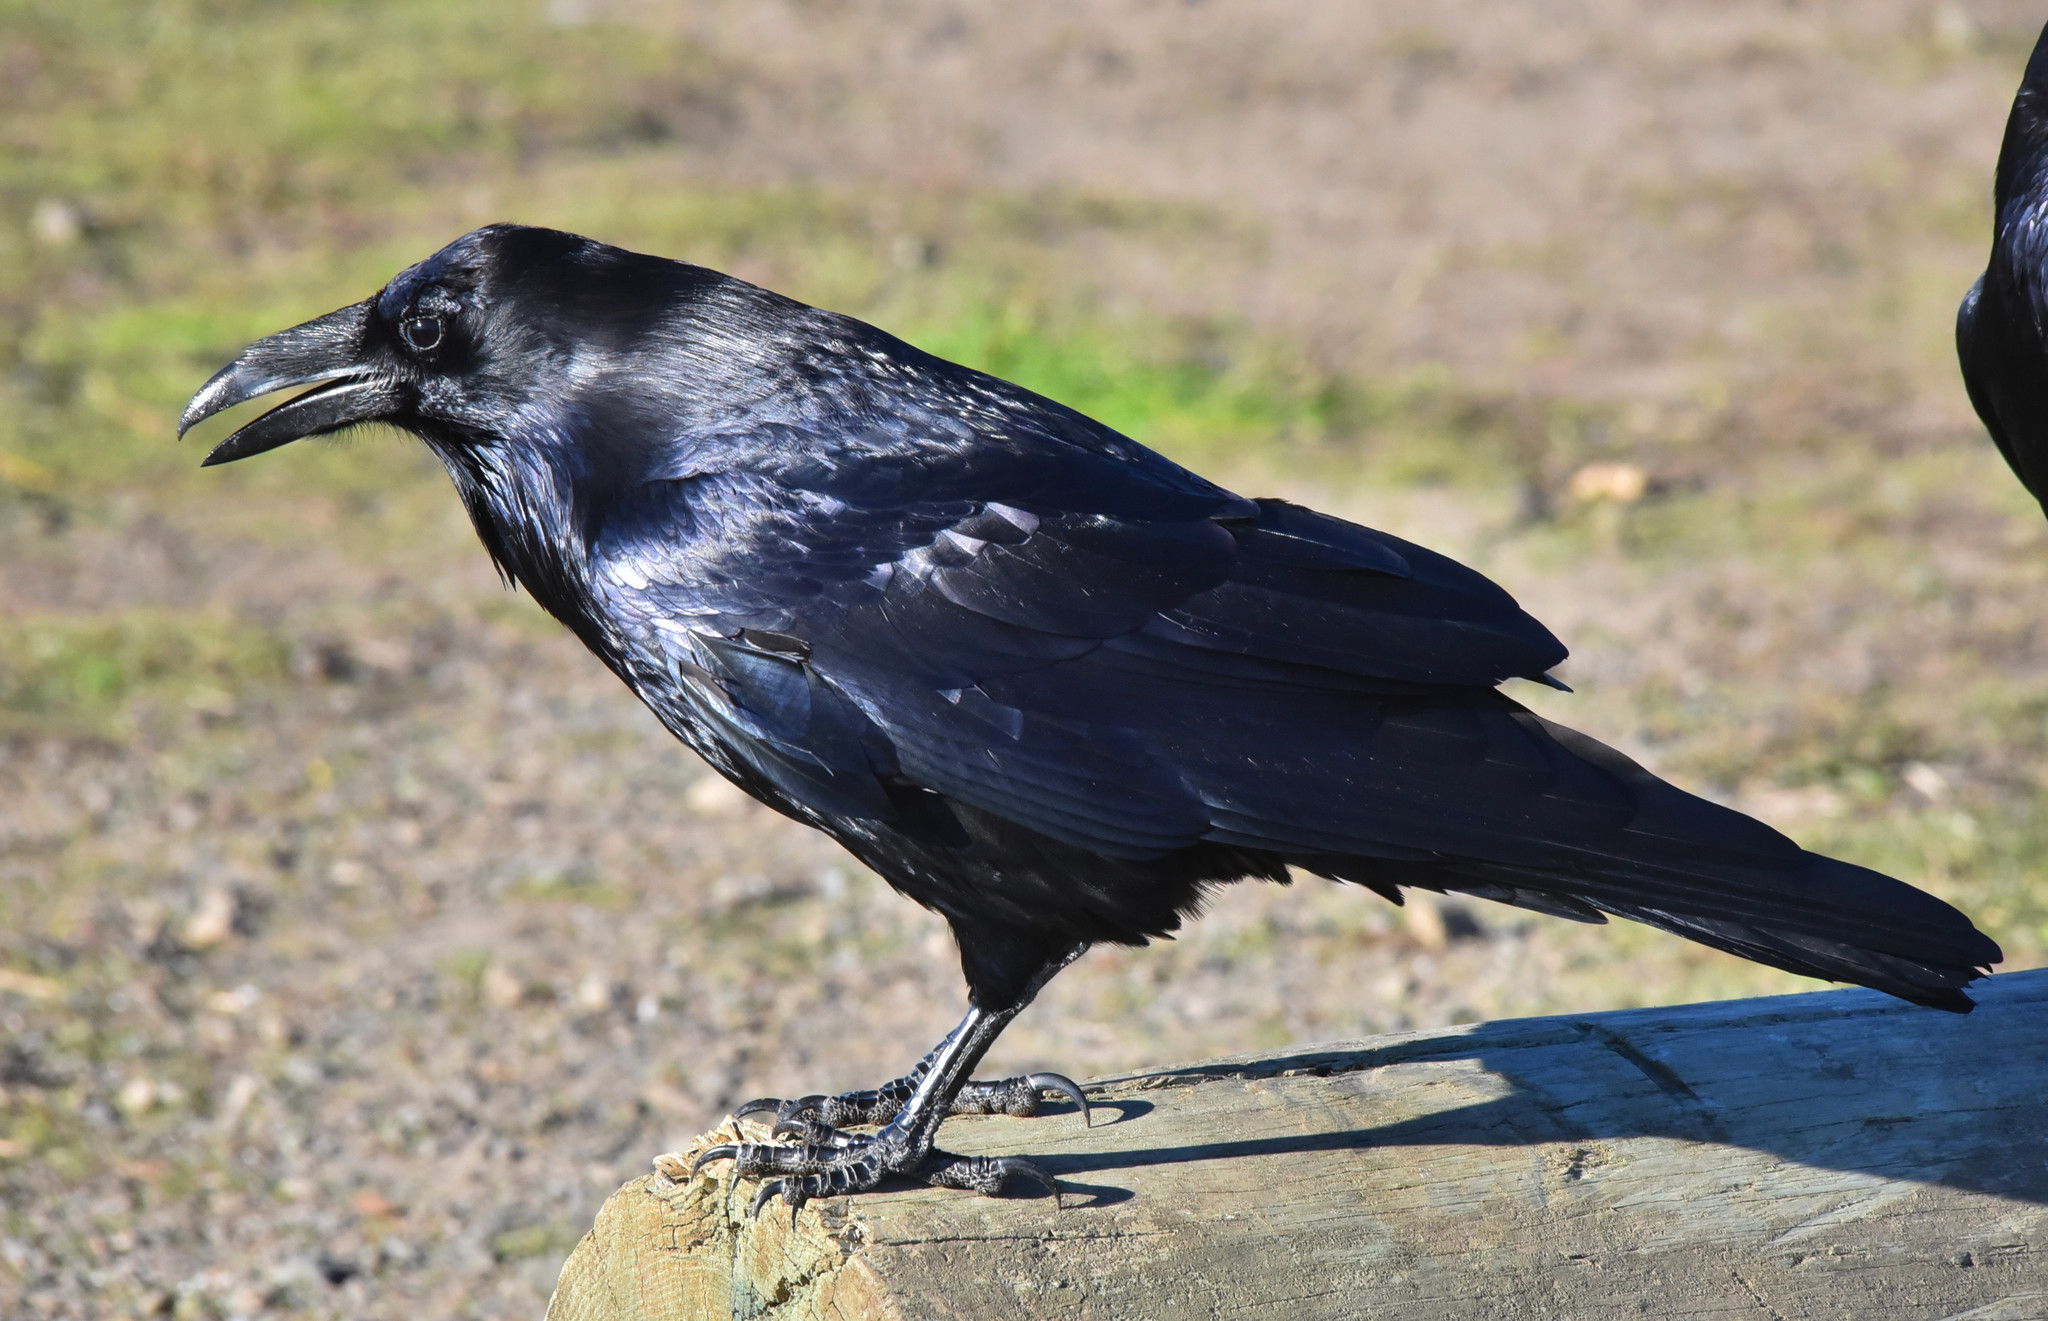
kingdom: Animalia
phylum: Chordata
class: Aves
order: Passeriformes
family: Corvidae
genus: Corvus
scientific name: Corvus corax
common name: Common raven
